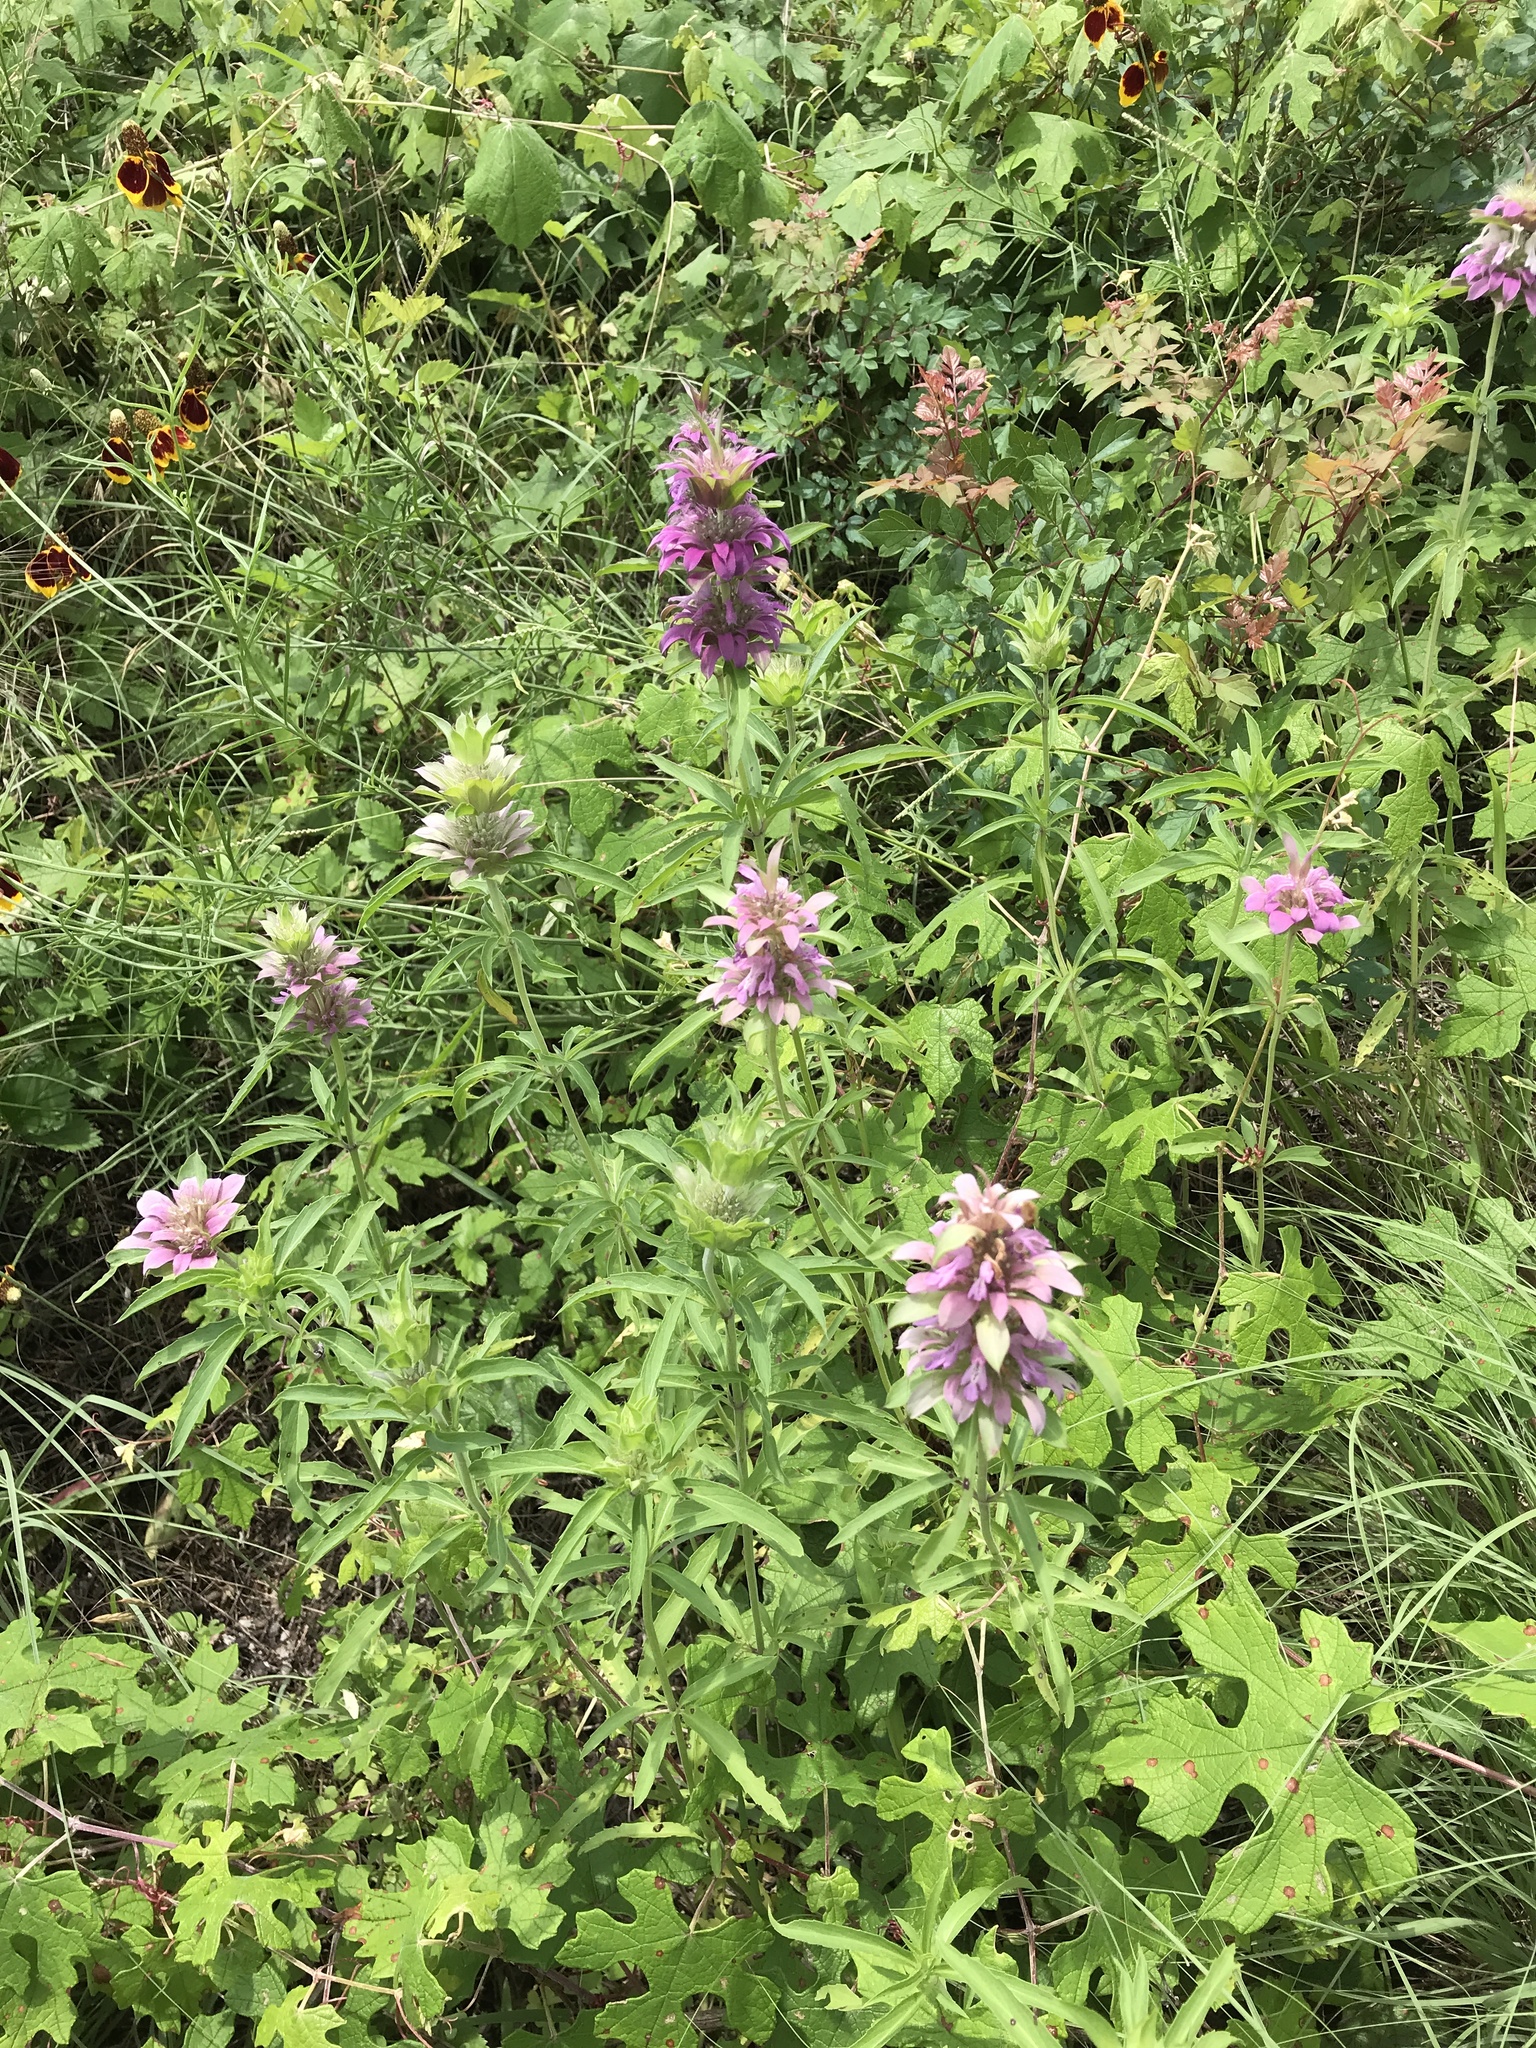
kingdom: Plantae
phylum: Tracheophyta
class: Magnoliopsida
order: Lamiales
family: Lamiaceae
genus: Monarda
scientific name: Monarda citriodora
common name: Lemon beebalm
